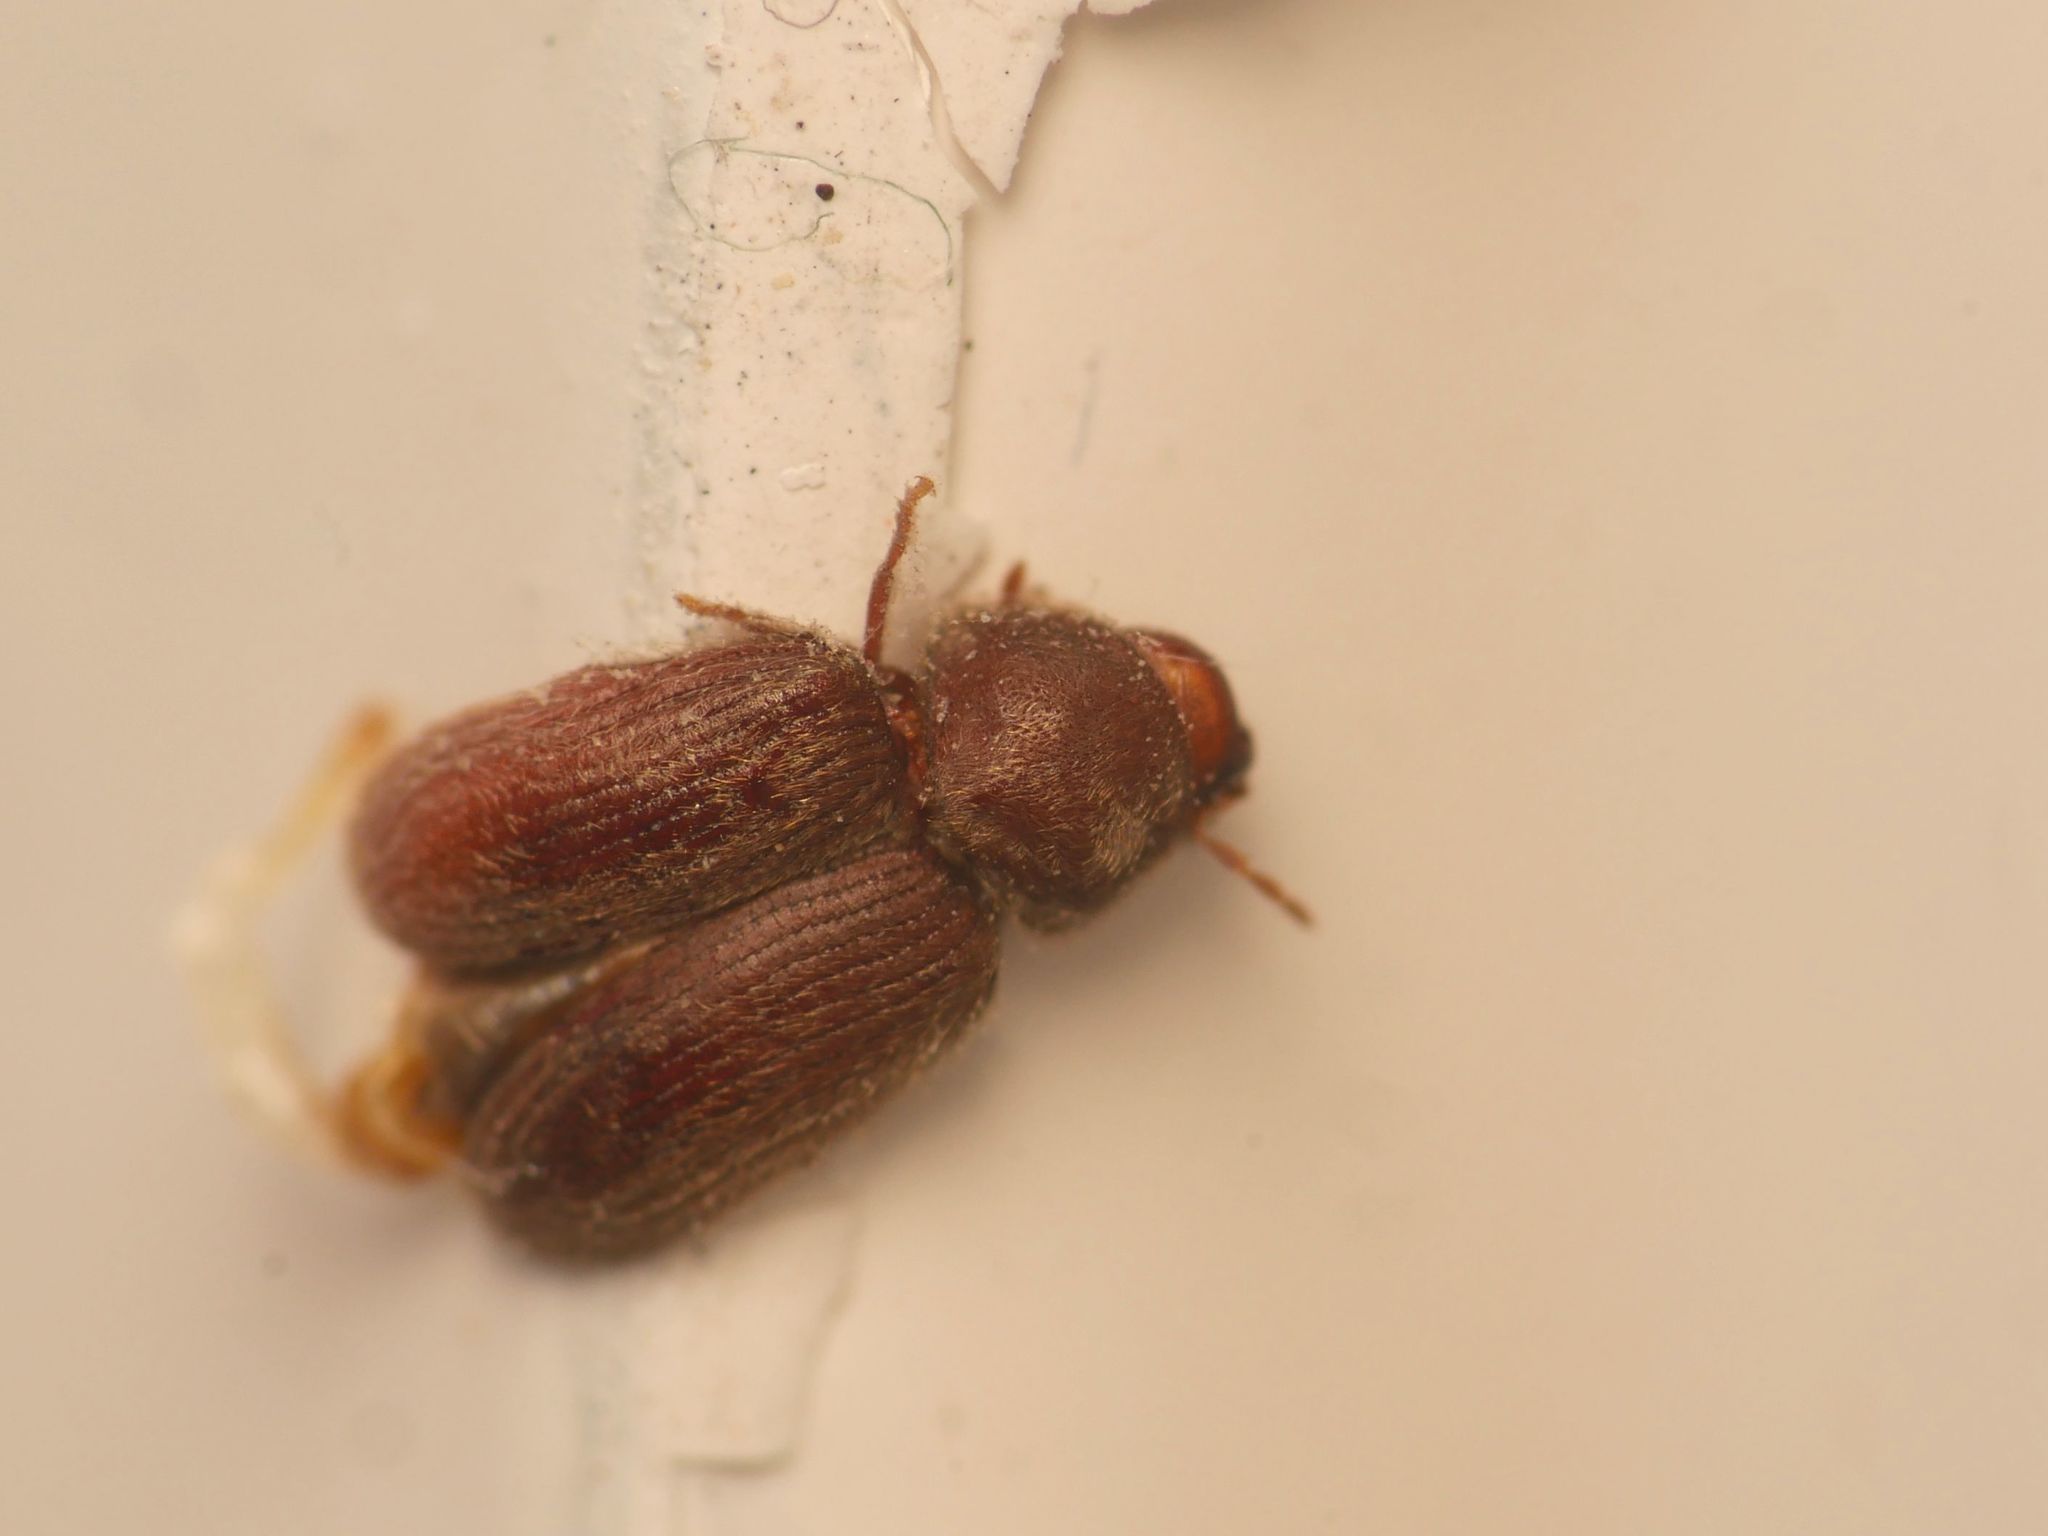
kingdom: Animalia
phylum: Arthropoda
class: Insecta
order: Coleoptera
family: Anobiidae
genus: Stegobium
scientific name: Stegobium paniceum
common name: Drugstore beetle
